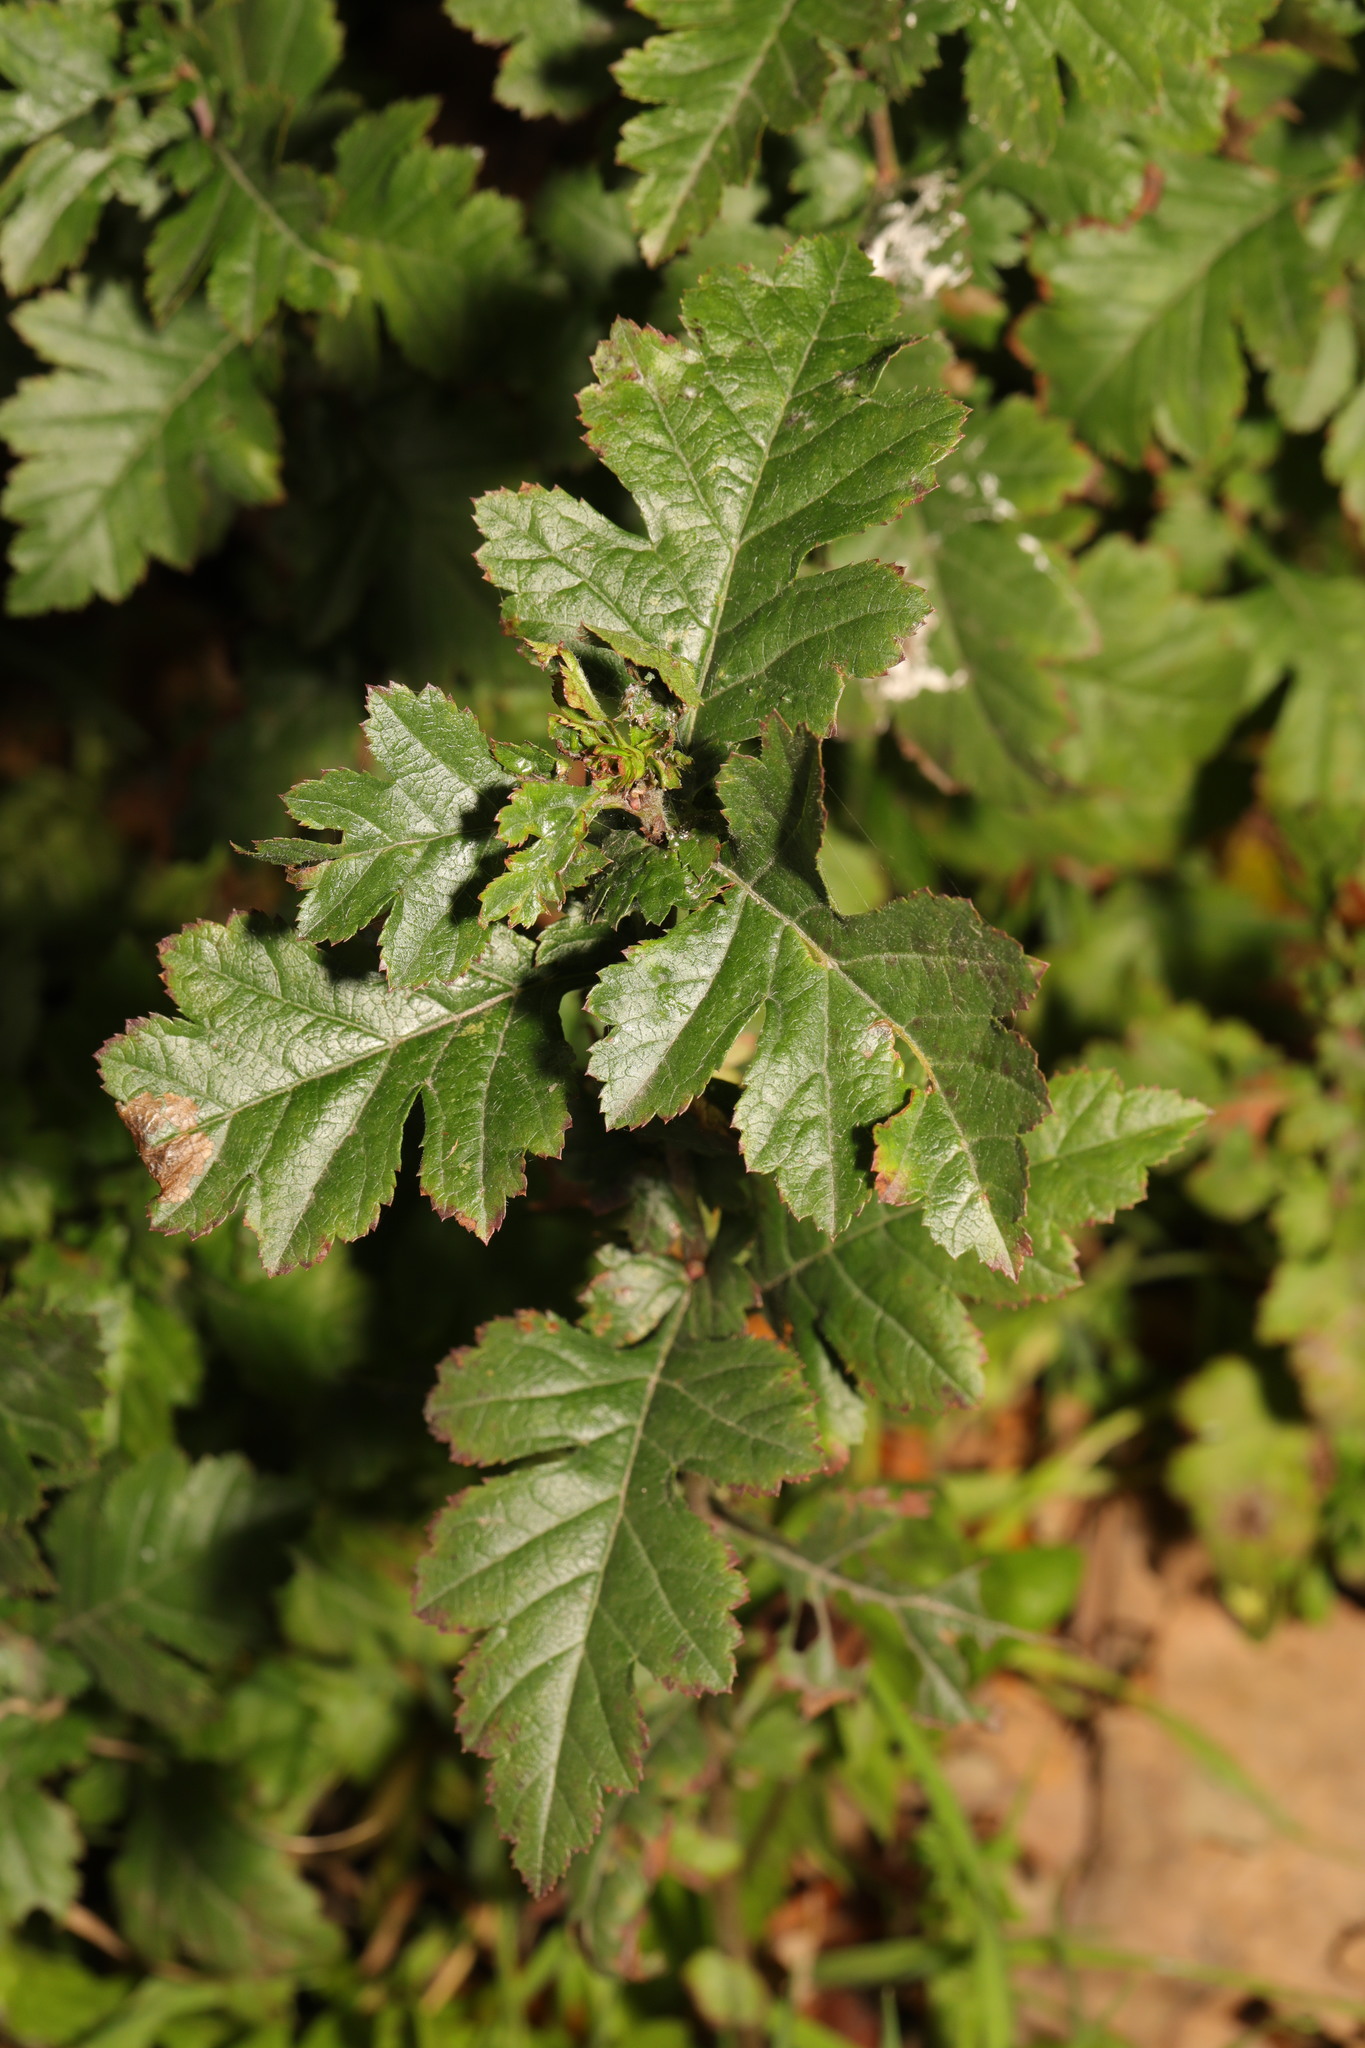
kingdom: Plantae
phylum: Tracheophyta
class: Magnoliopsida
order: Rosales
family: Rosaceae
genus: Crataegus
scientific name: Crataegus monogyna
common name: Hawthorn
